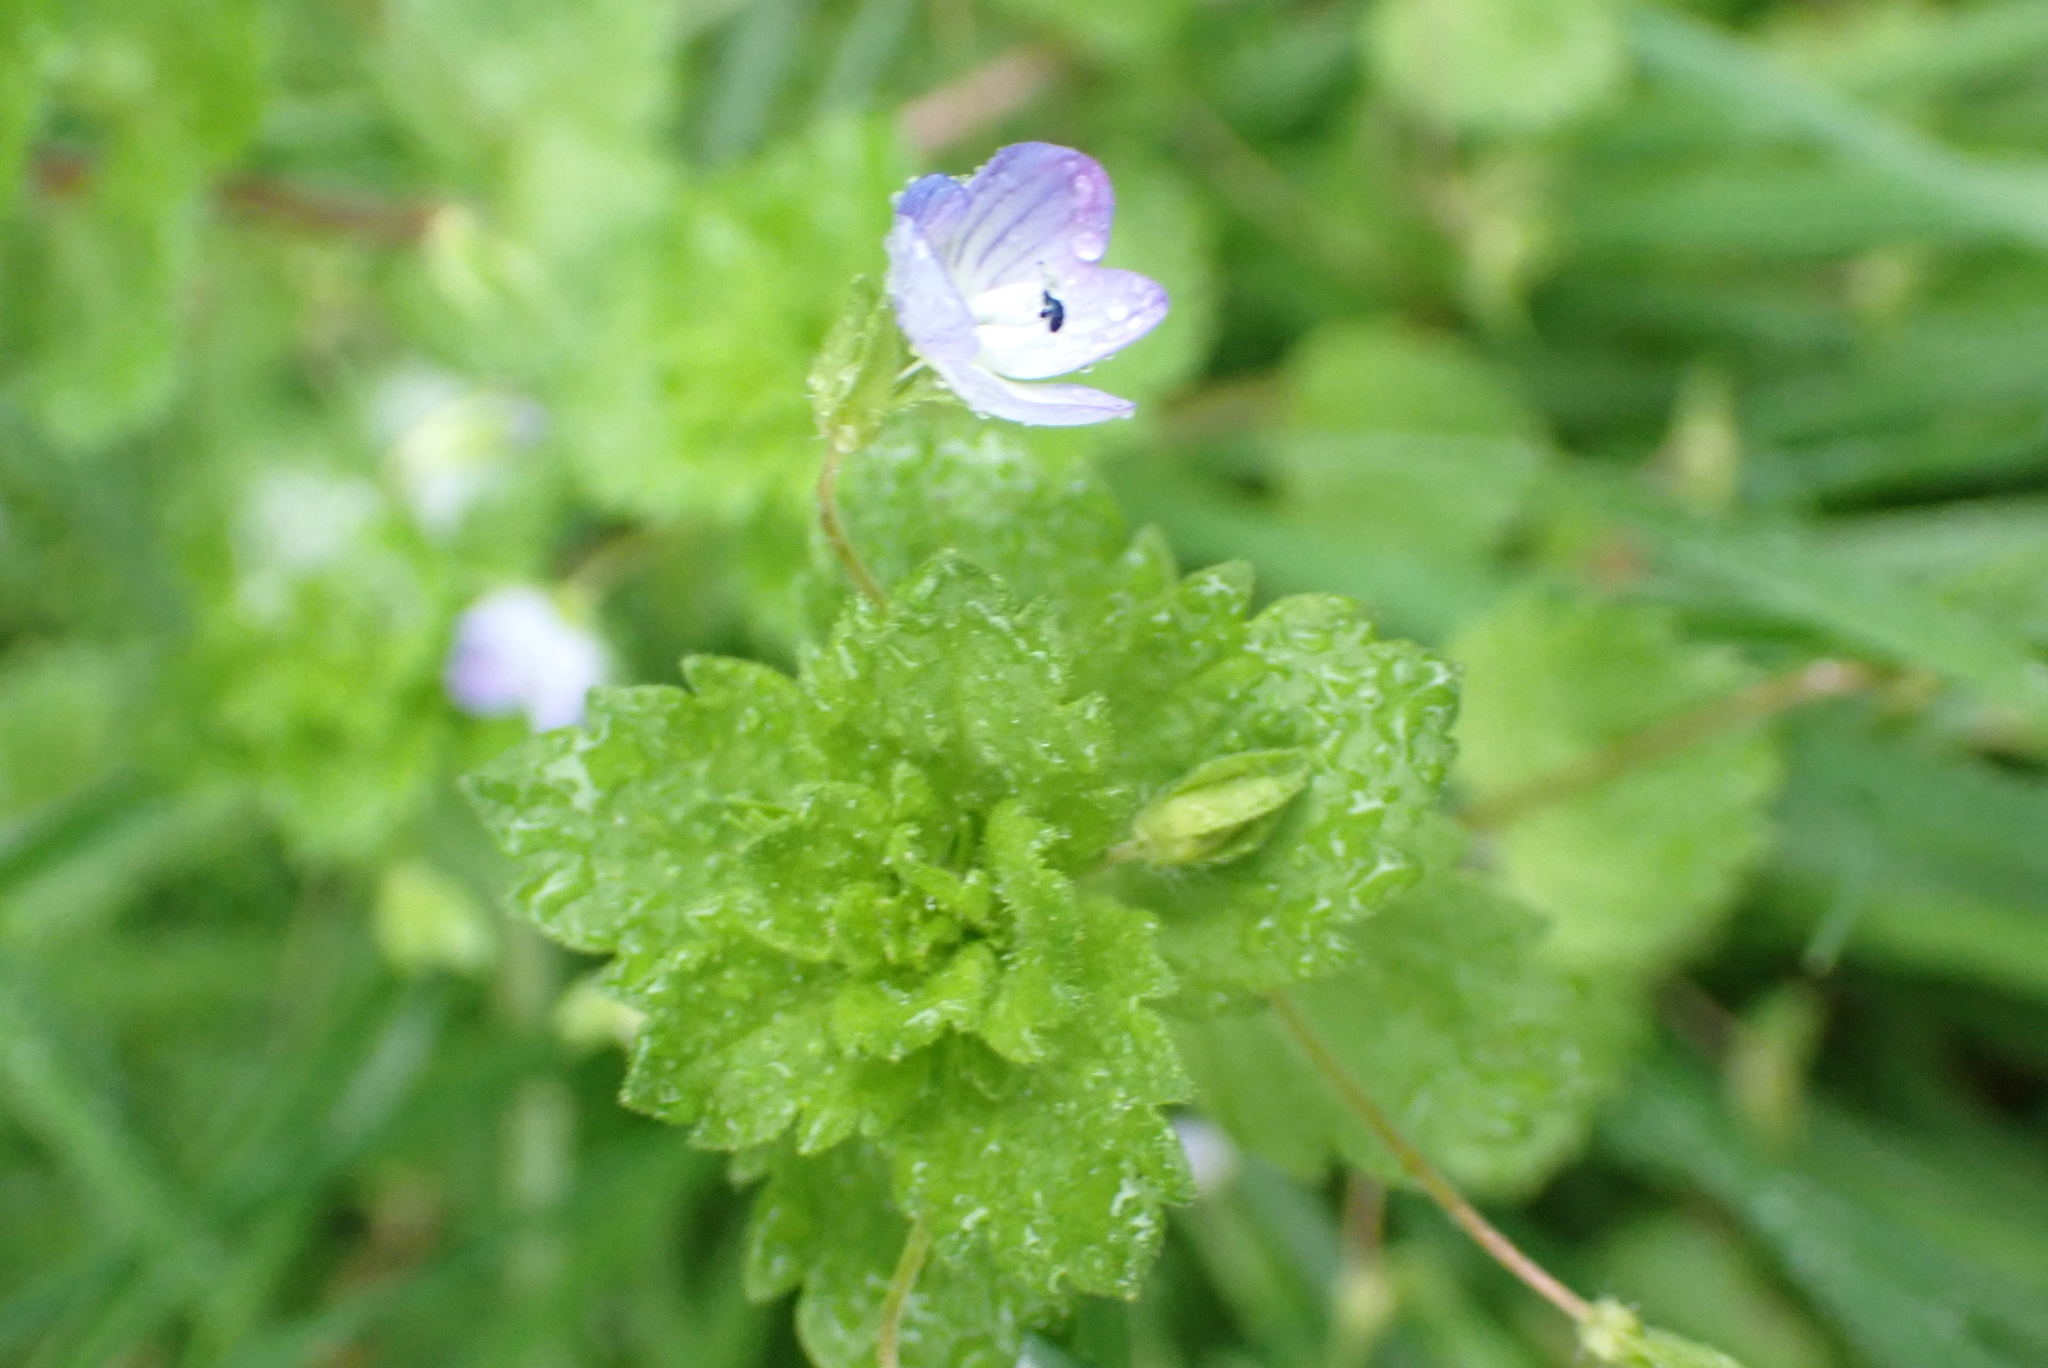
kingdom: Plantae
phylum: Tracheophyta
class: Magnoliopsida
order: Lamiales
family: Plantaginaceae
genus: Veronica
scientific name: Veronica persica
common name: Common field-speedwell
